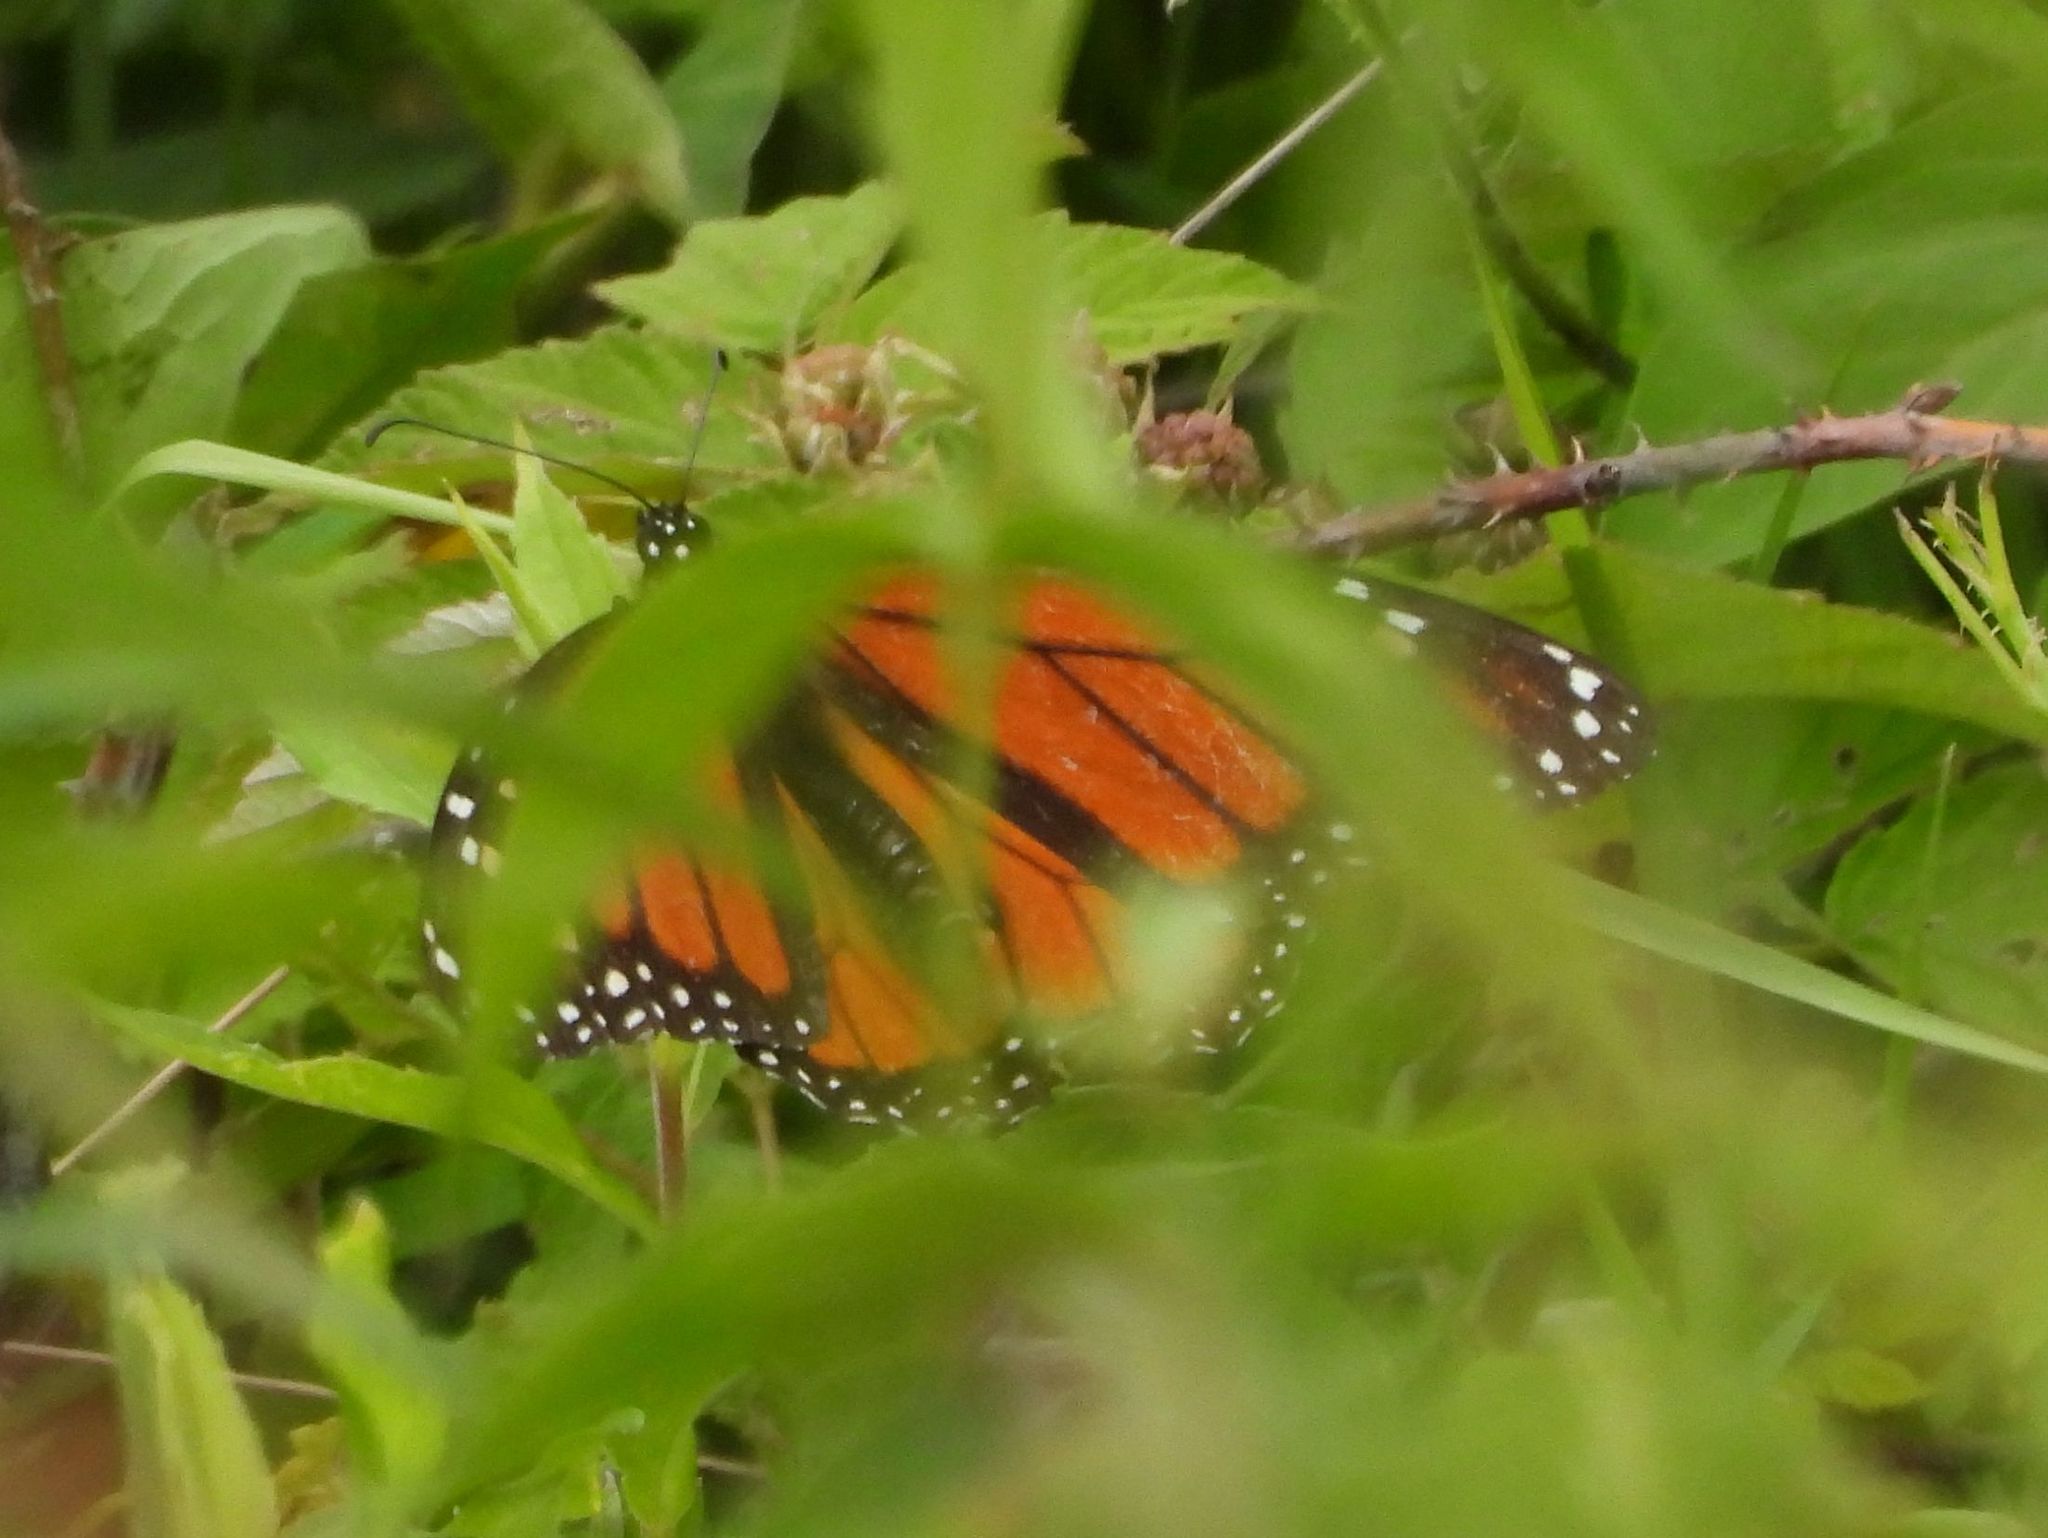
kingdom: Animalia
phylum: Arthropoda
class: Insecta
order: Lepidoptera
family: Nymphalidae
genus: Danaus
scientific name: Danaus plexippus
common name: Monarch
